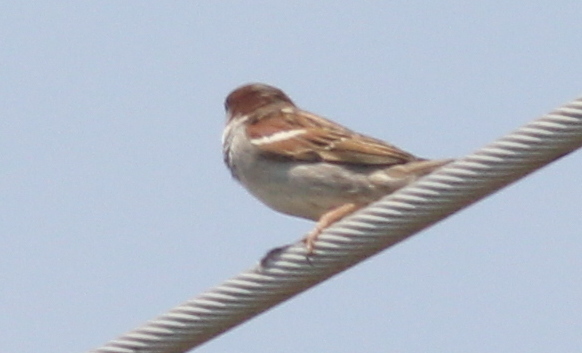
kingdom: Animalia
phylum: Chordata
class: Aves
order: Passeriformes
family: Passeridae
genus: Passer
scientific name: Passer domesticus
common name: House sparrow
